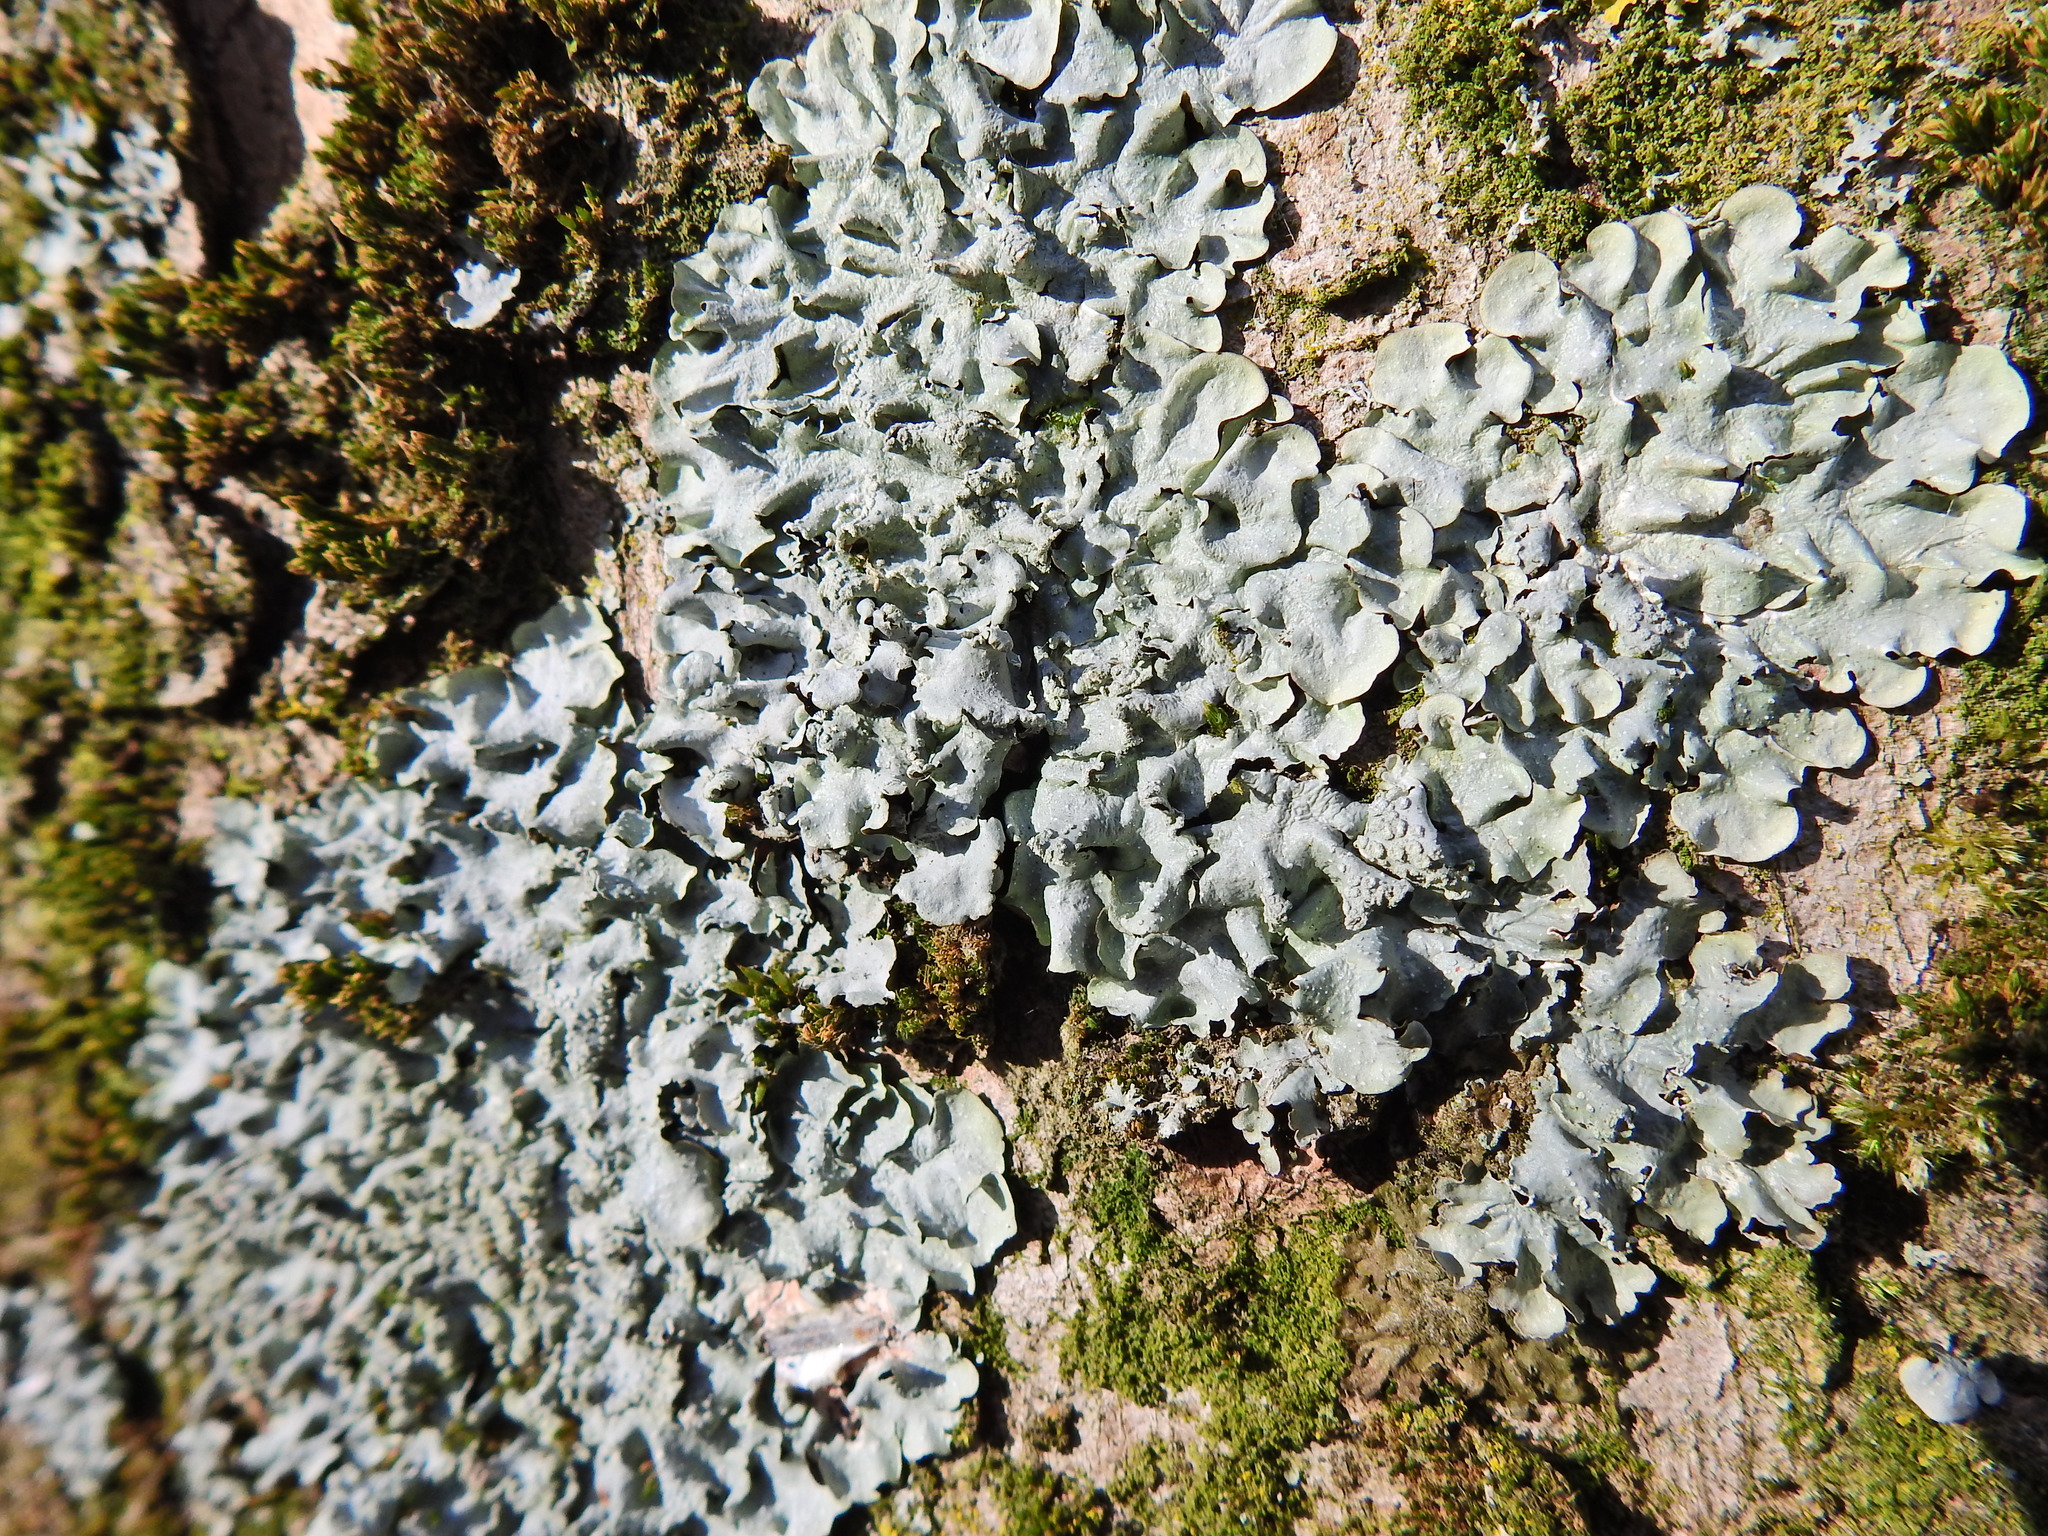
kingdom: Fungi
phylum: Ascomycota
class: Lecanoromycetes
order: Lecanorales
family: Parmeliaceae
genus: Punctelia
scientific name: Punctelia
